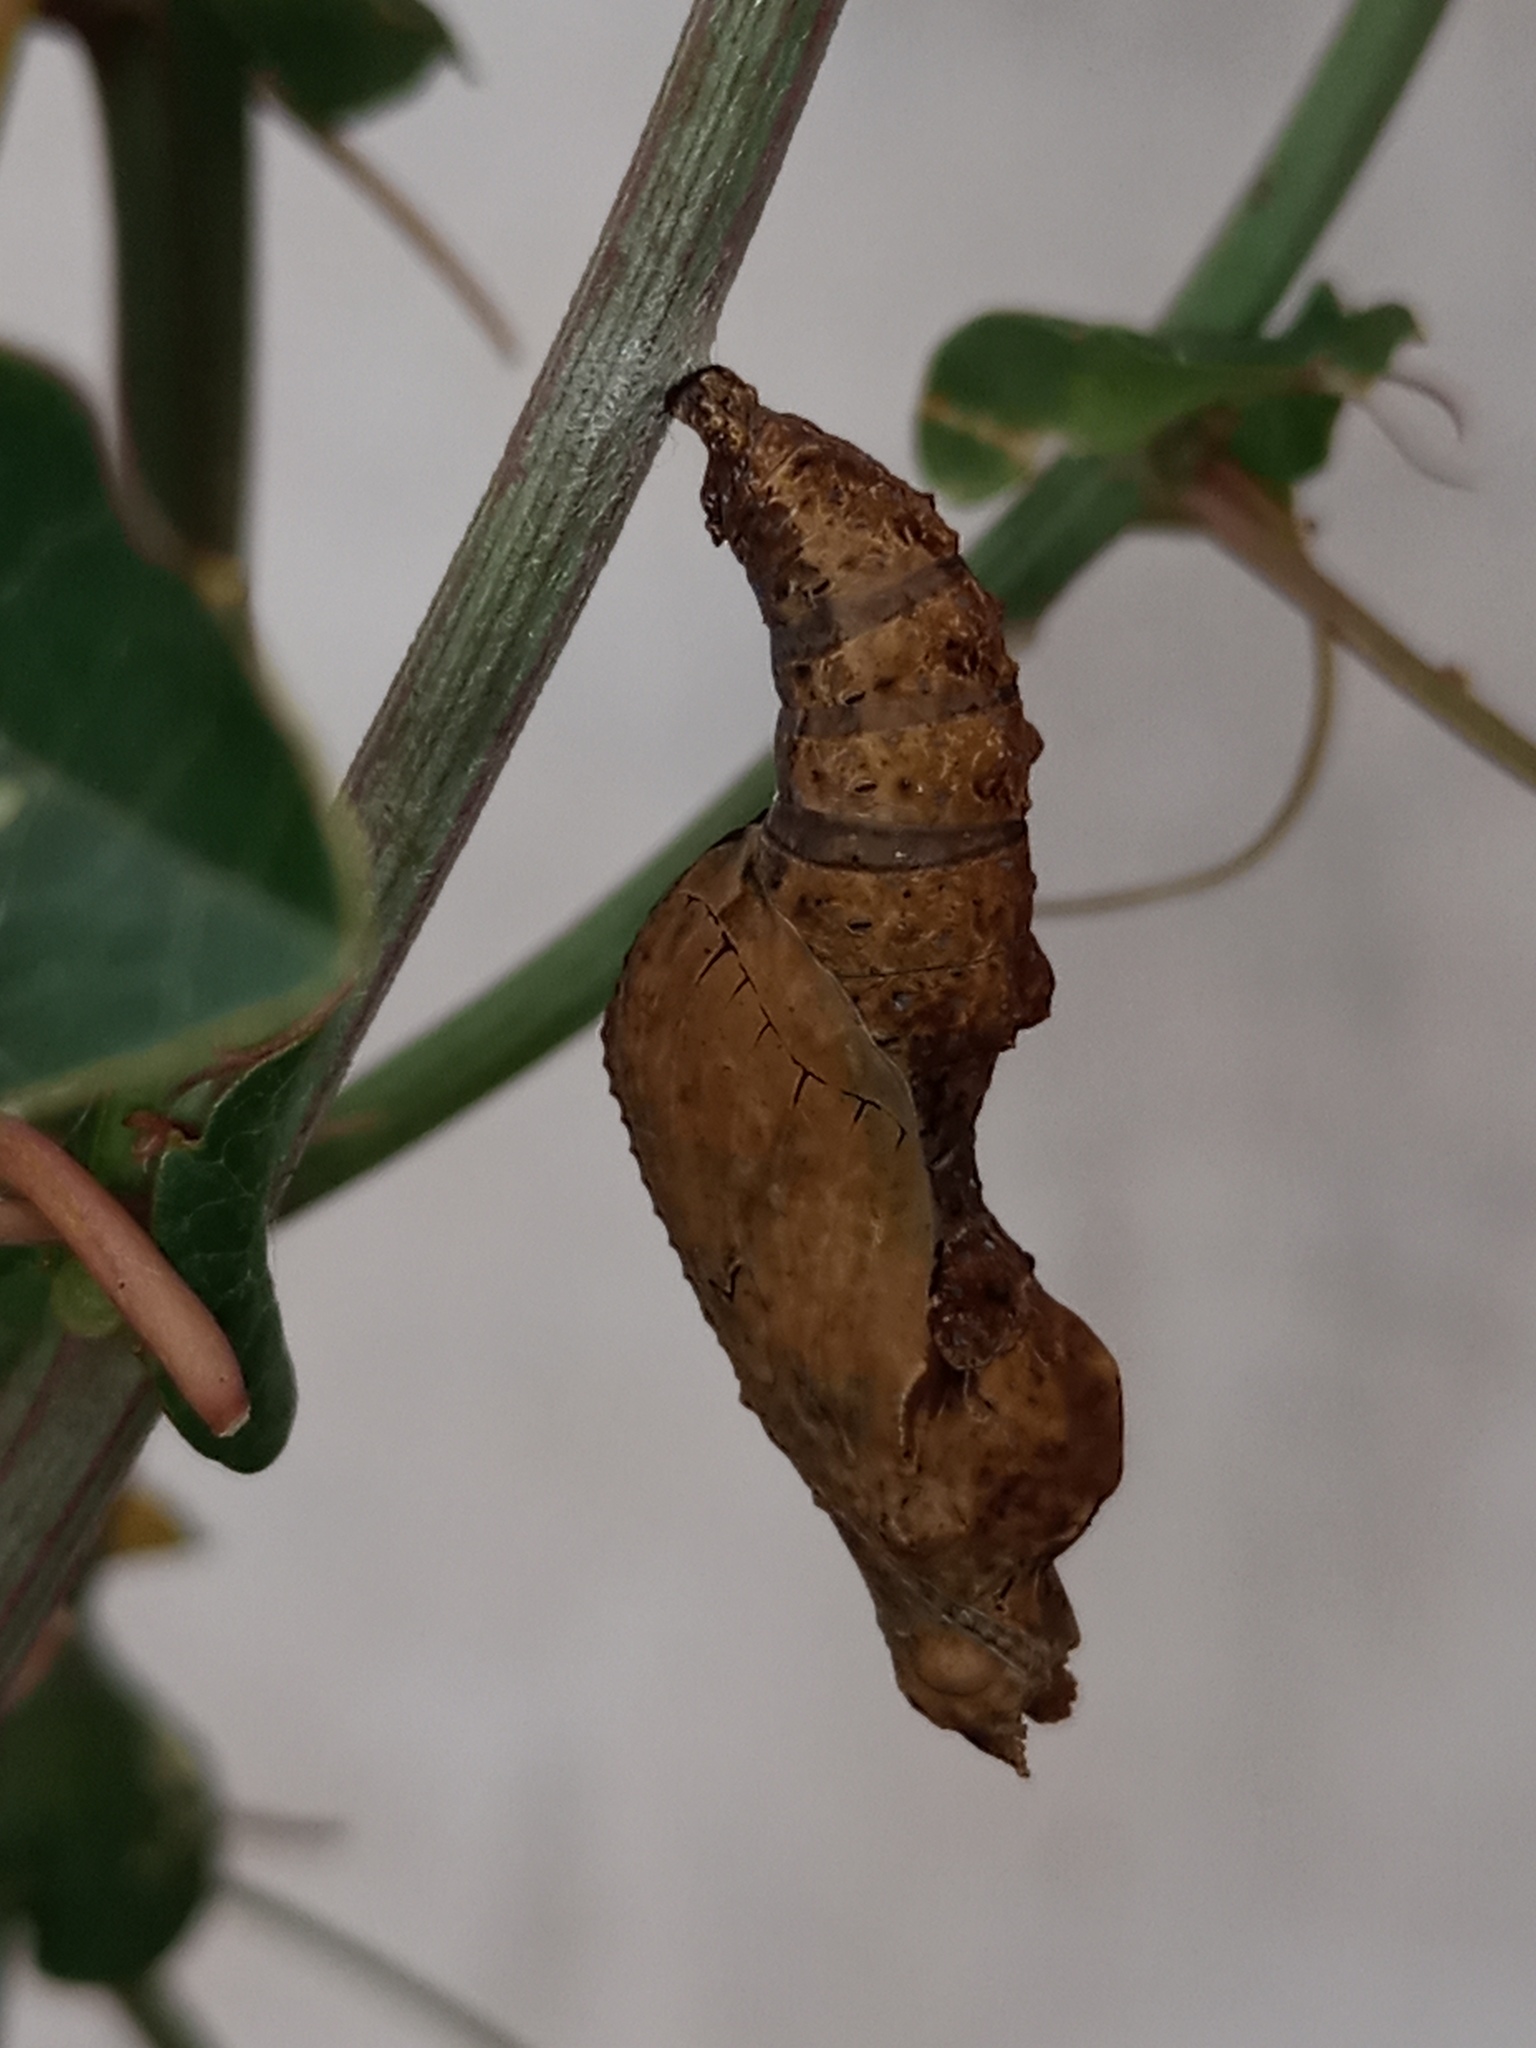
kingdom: Animalia
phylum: Arthropoda
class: Insecta
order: Lepidoptera
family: Nymphalidae
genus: Dione
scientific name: Dione vanillae
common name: Gulf fritillary
